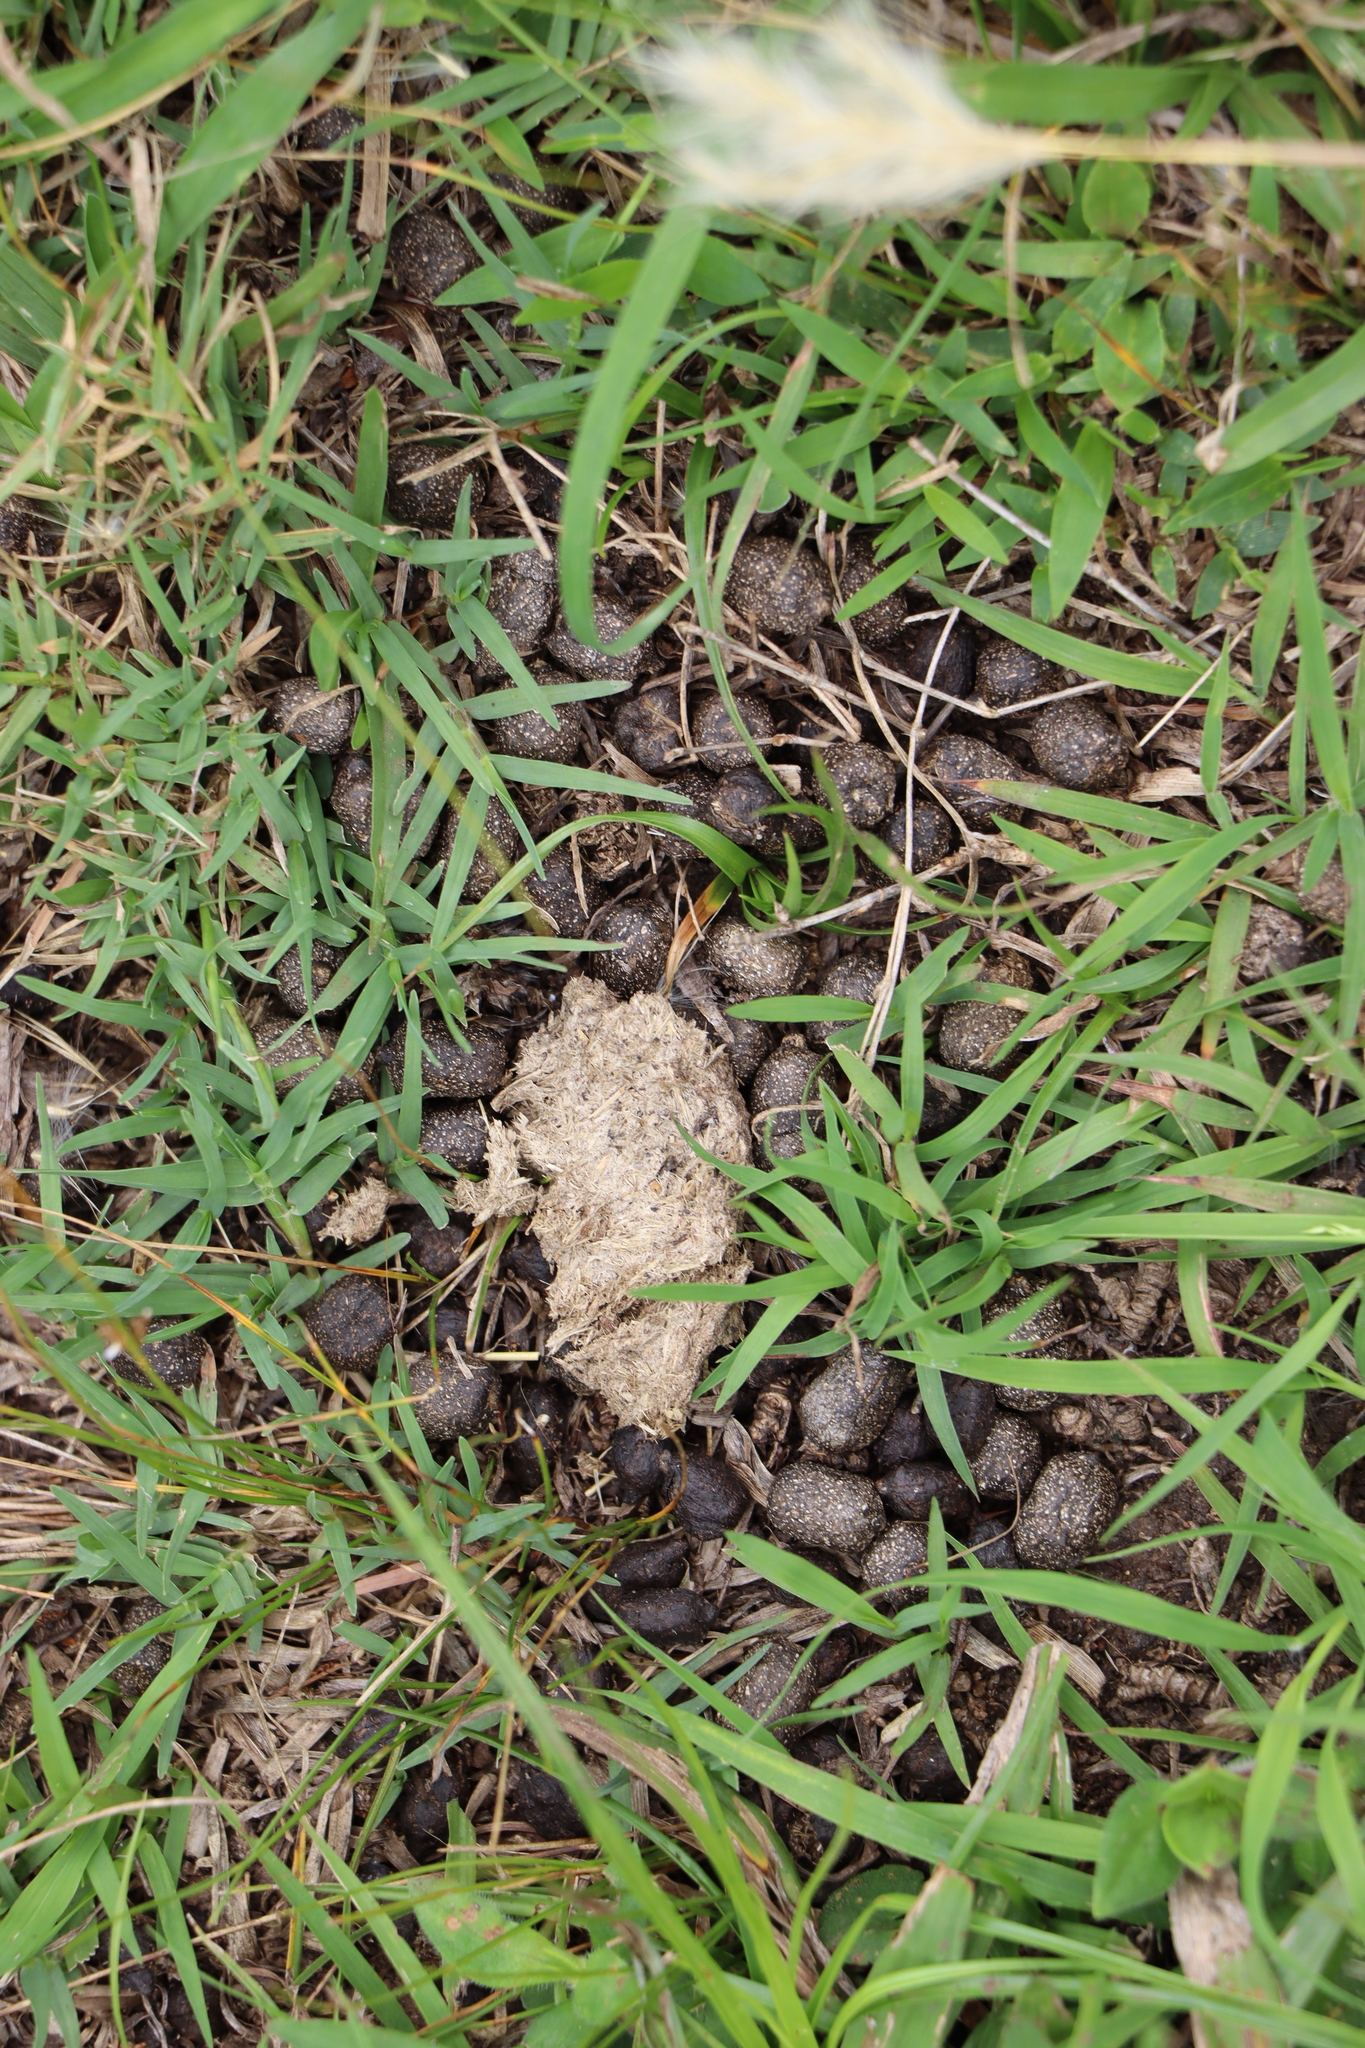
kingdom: Animalia
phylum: Chordata
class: Mammalia
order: Artiodactyla
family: Cervidae
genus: Mazama
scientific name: Mazama gouazoubira
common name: Gray brocket
